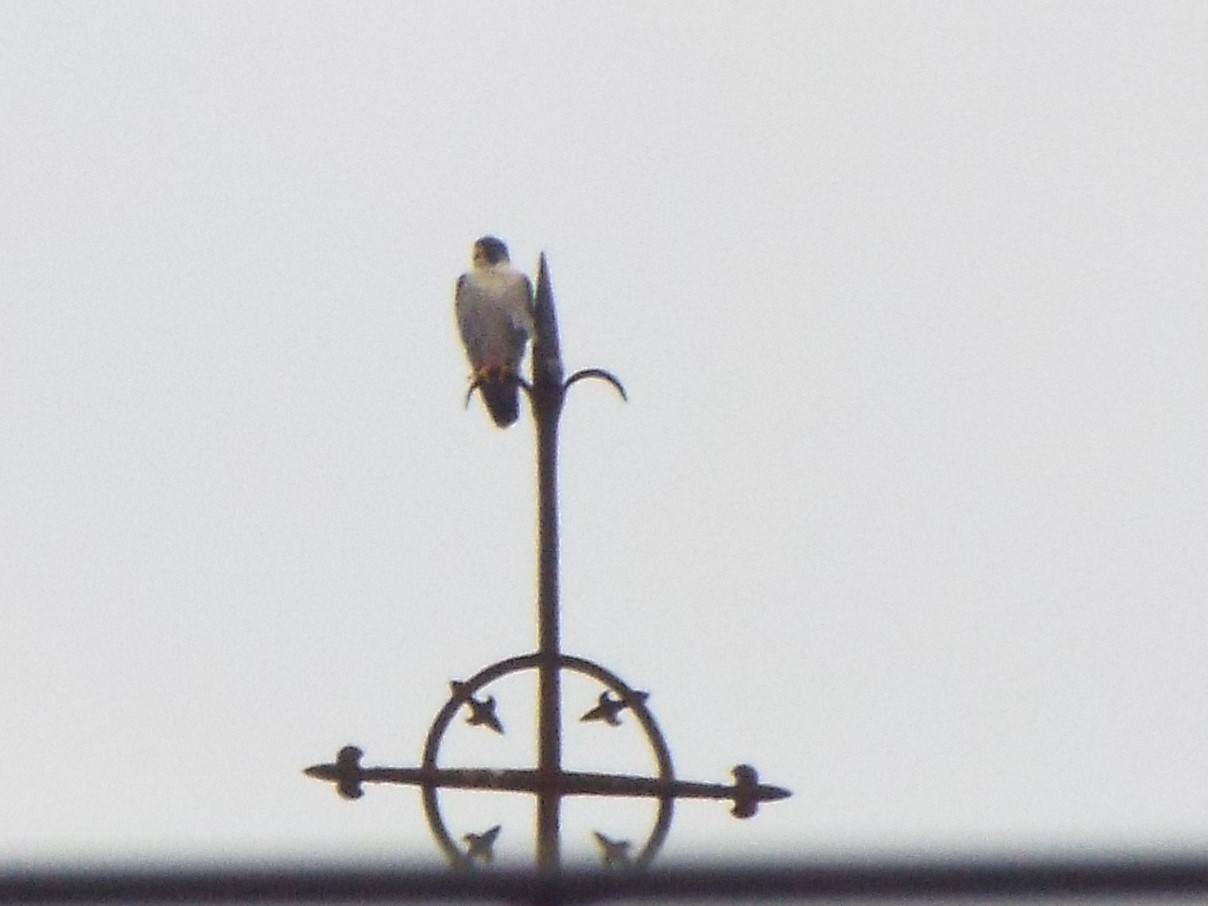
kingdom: Animalia
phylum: Chordata
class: Aves
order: Falconiformes
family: Falconidae
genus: Falco
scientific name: Falco peregrinus
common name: Peregrine falcon
